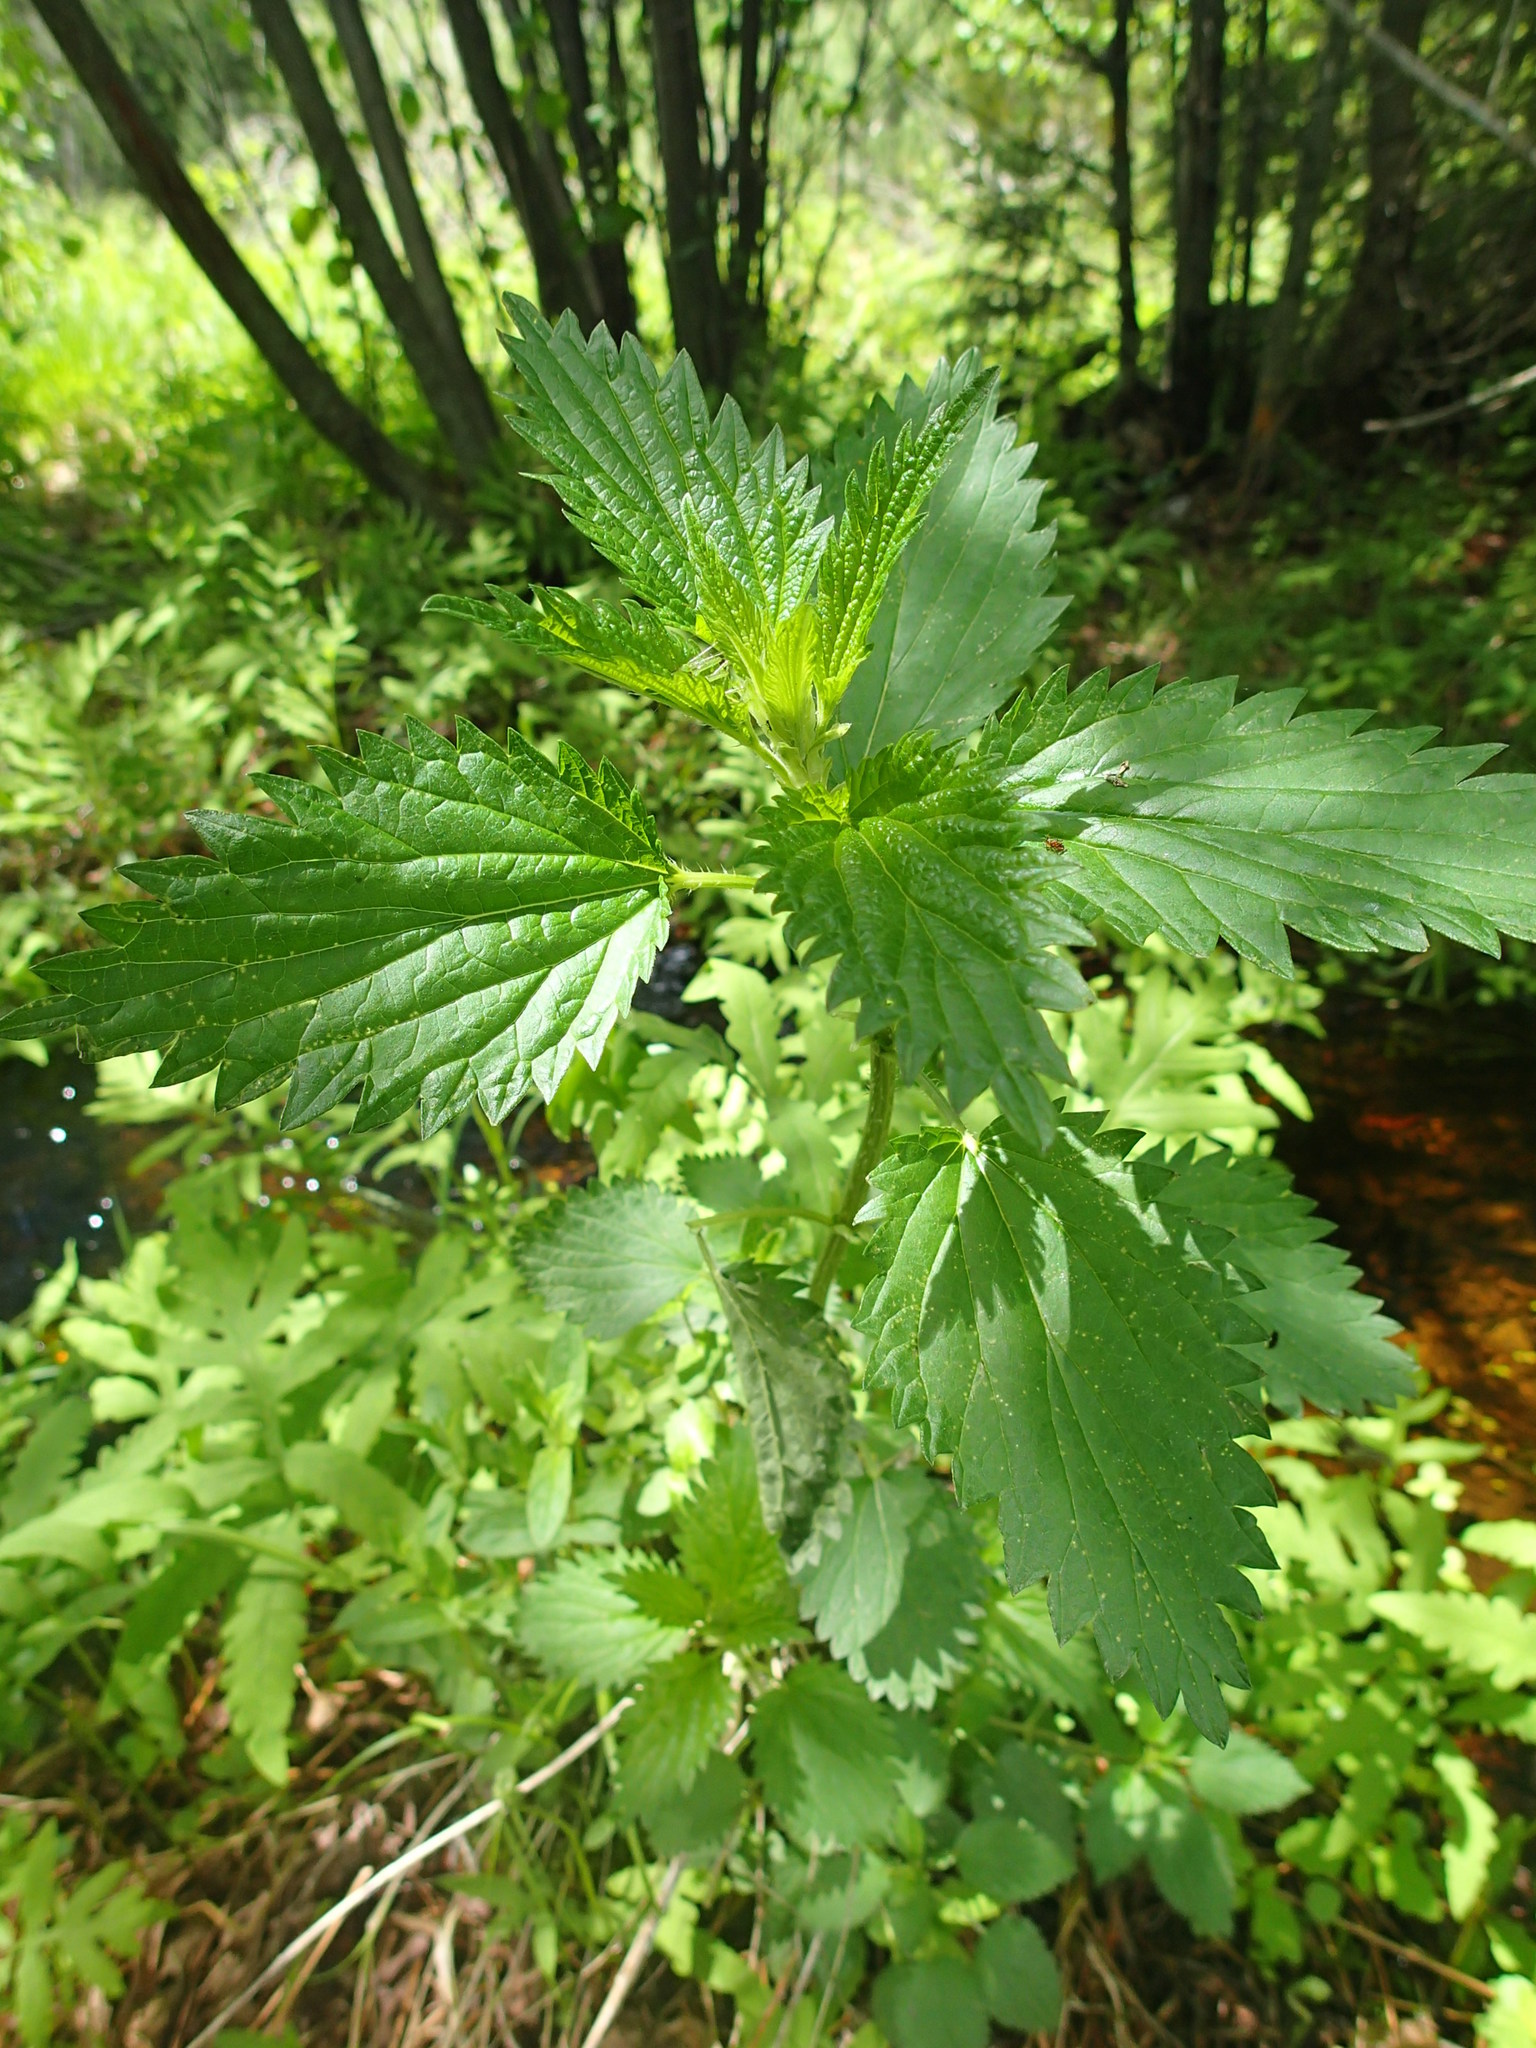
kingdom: Plantae
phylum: Tracheophyta
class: Magnoliopsida
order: Rosales
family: Urticaceae
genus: Urtica
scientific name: Urtica dioica
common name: Common nettle
